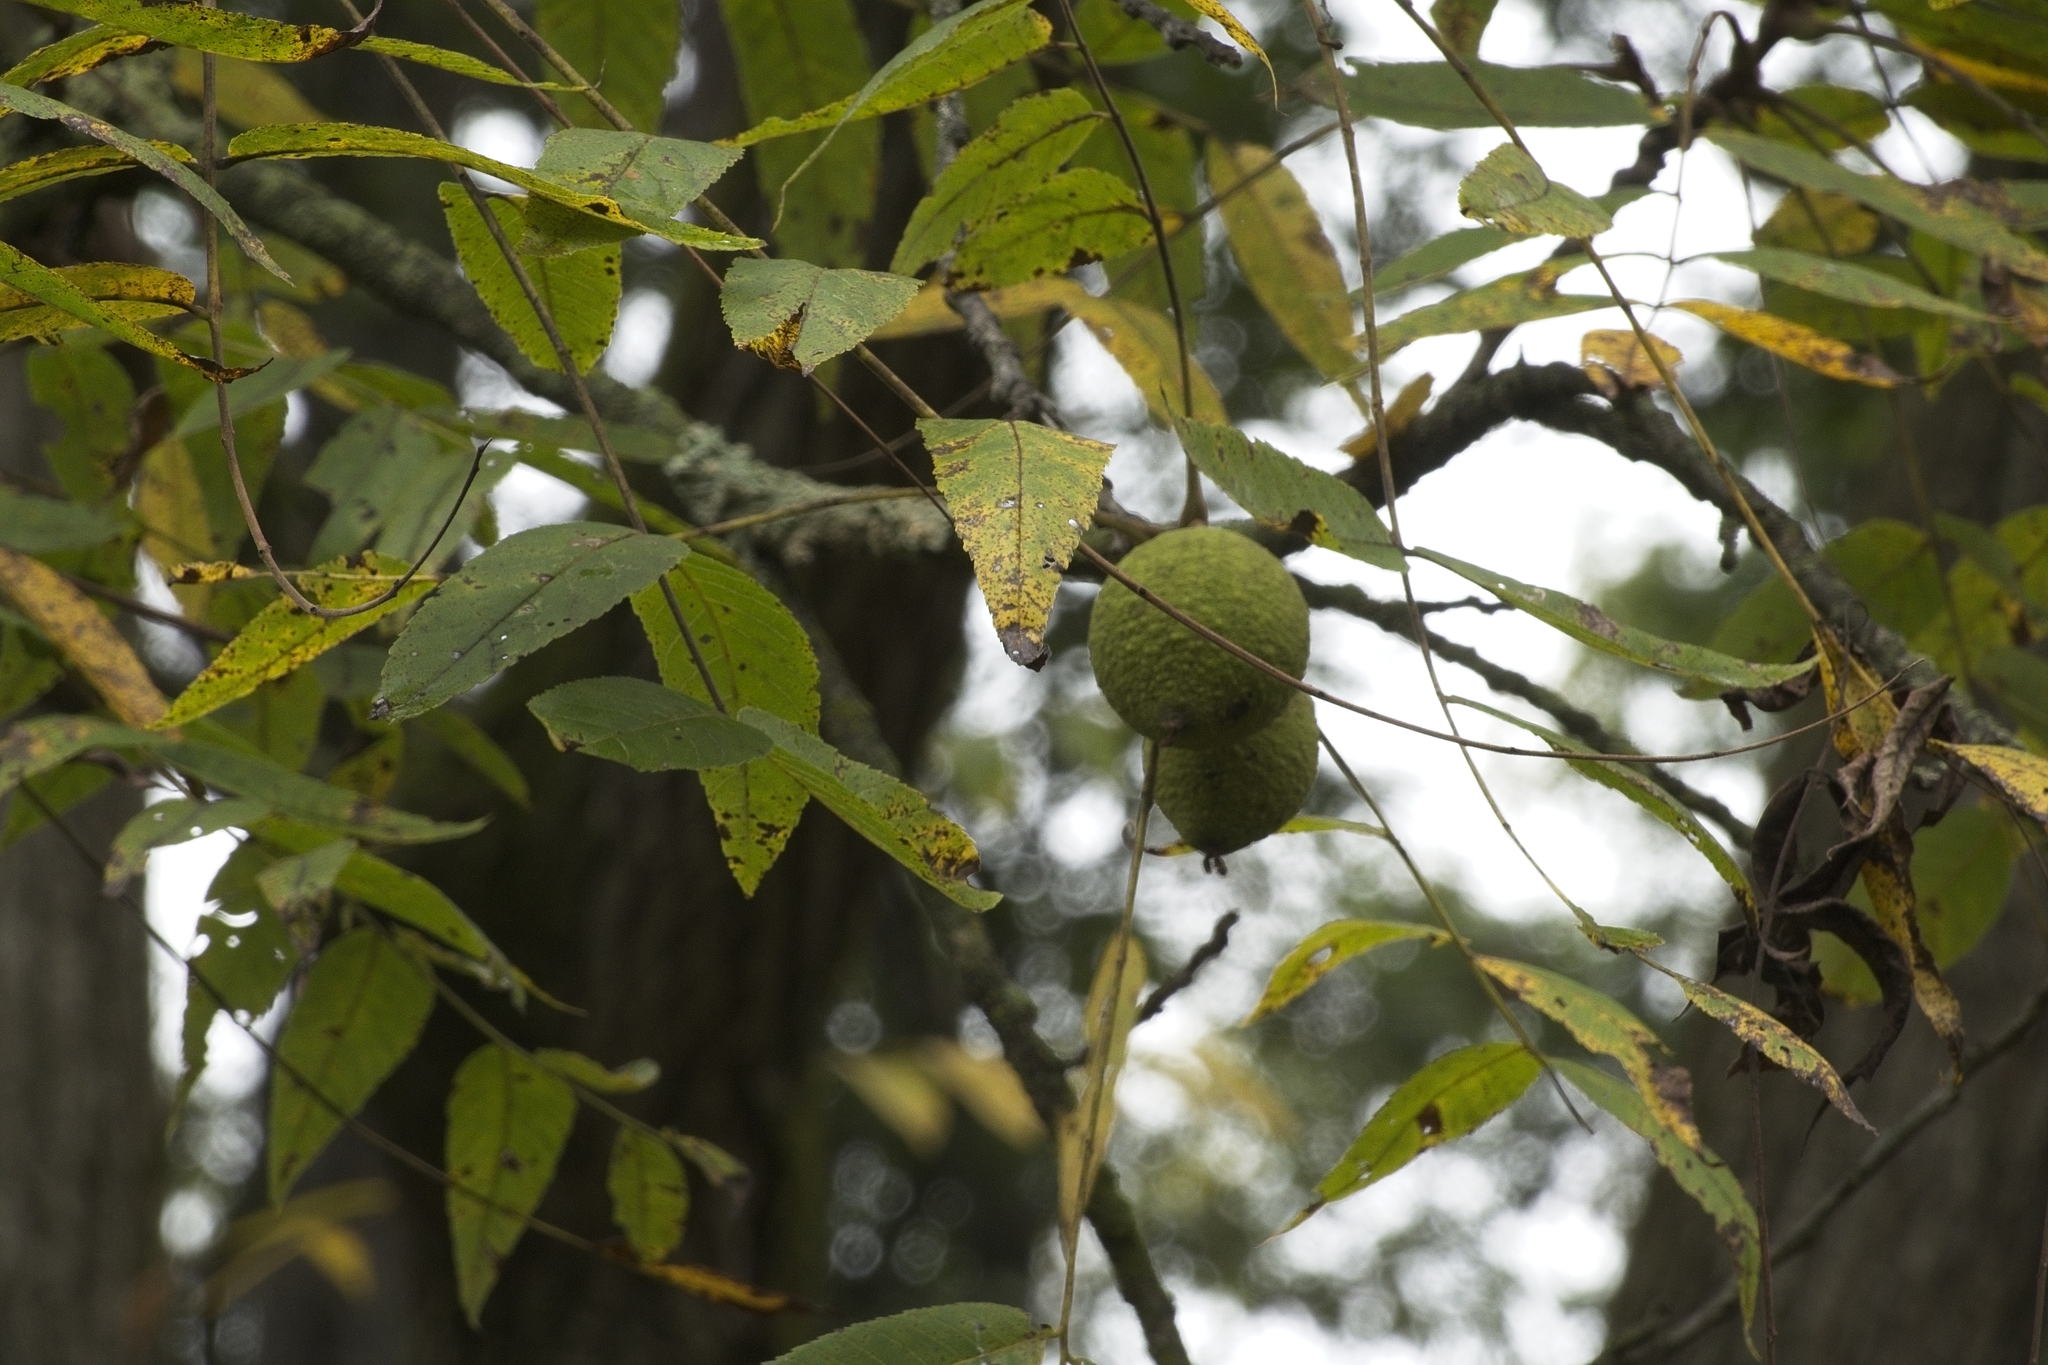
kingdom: Plantae
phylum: Tracheophyta
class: Magnoliopsida
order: Fagales
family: Juglandaceae
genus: Juglans
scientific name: Juglans nigra
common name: Black walnut
